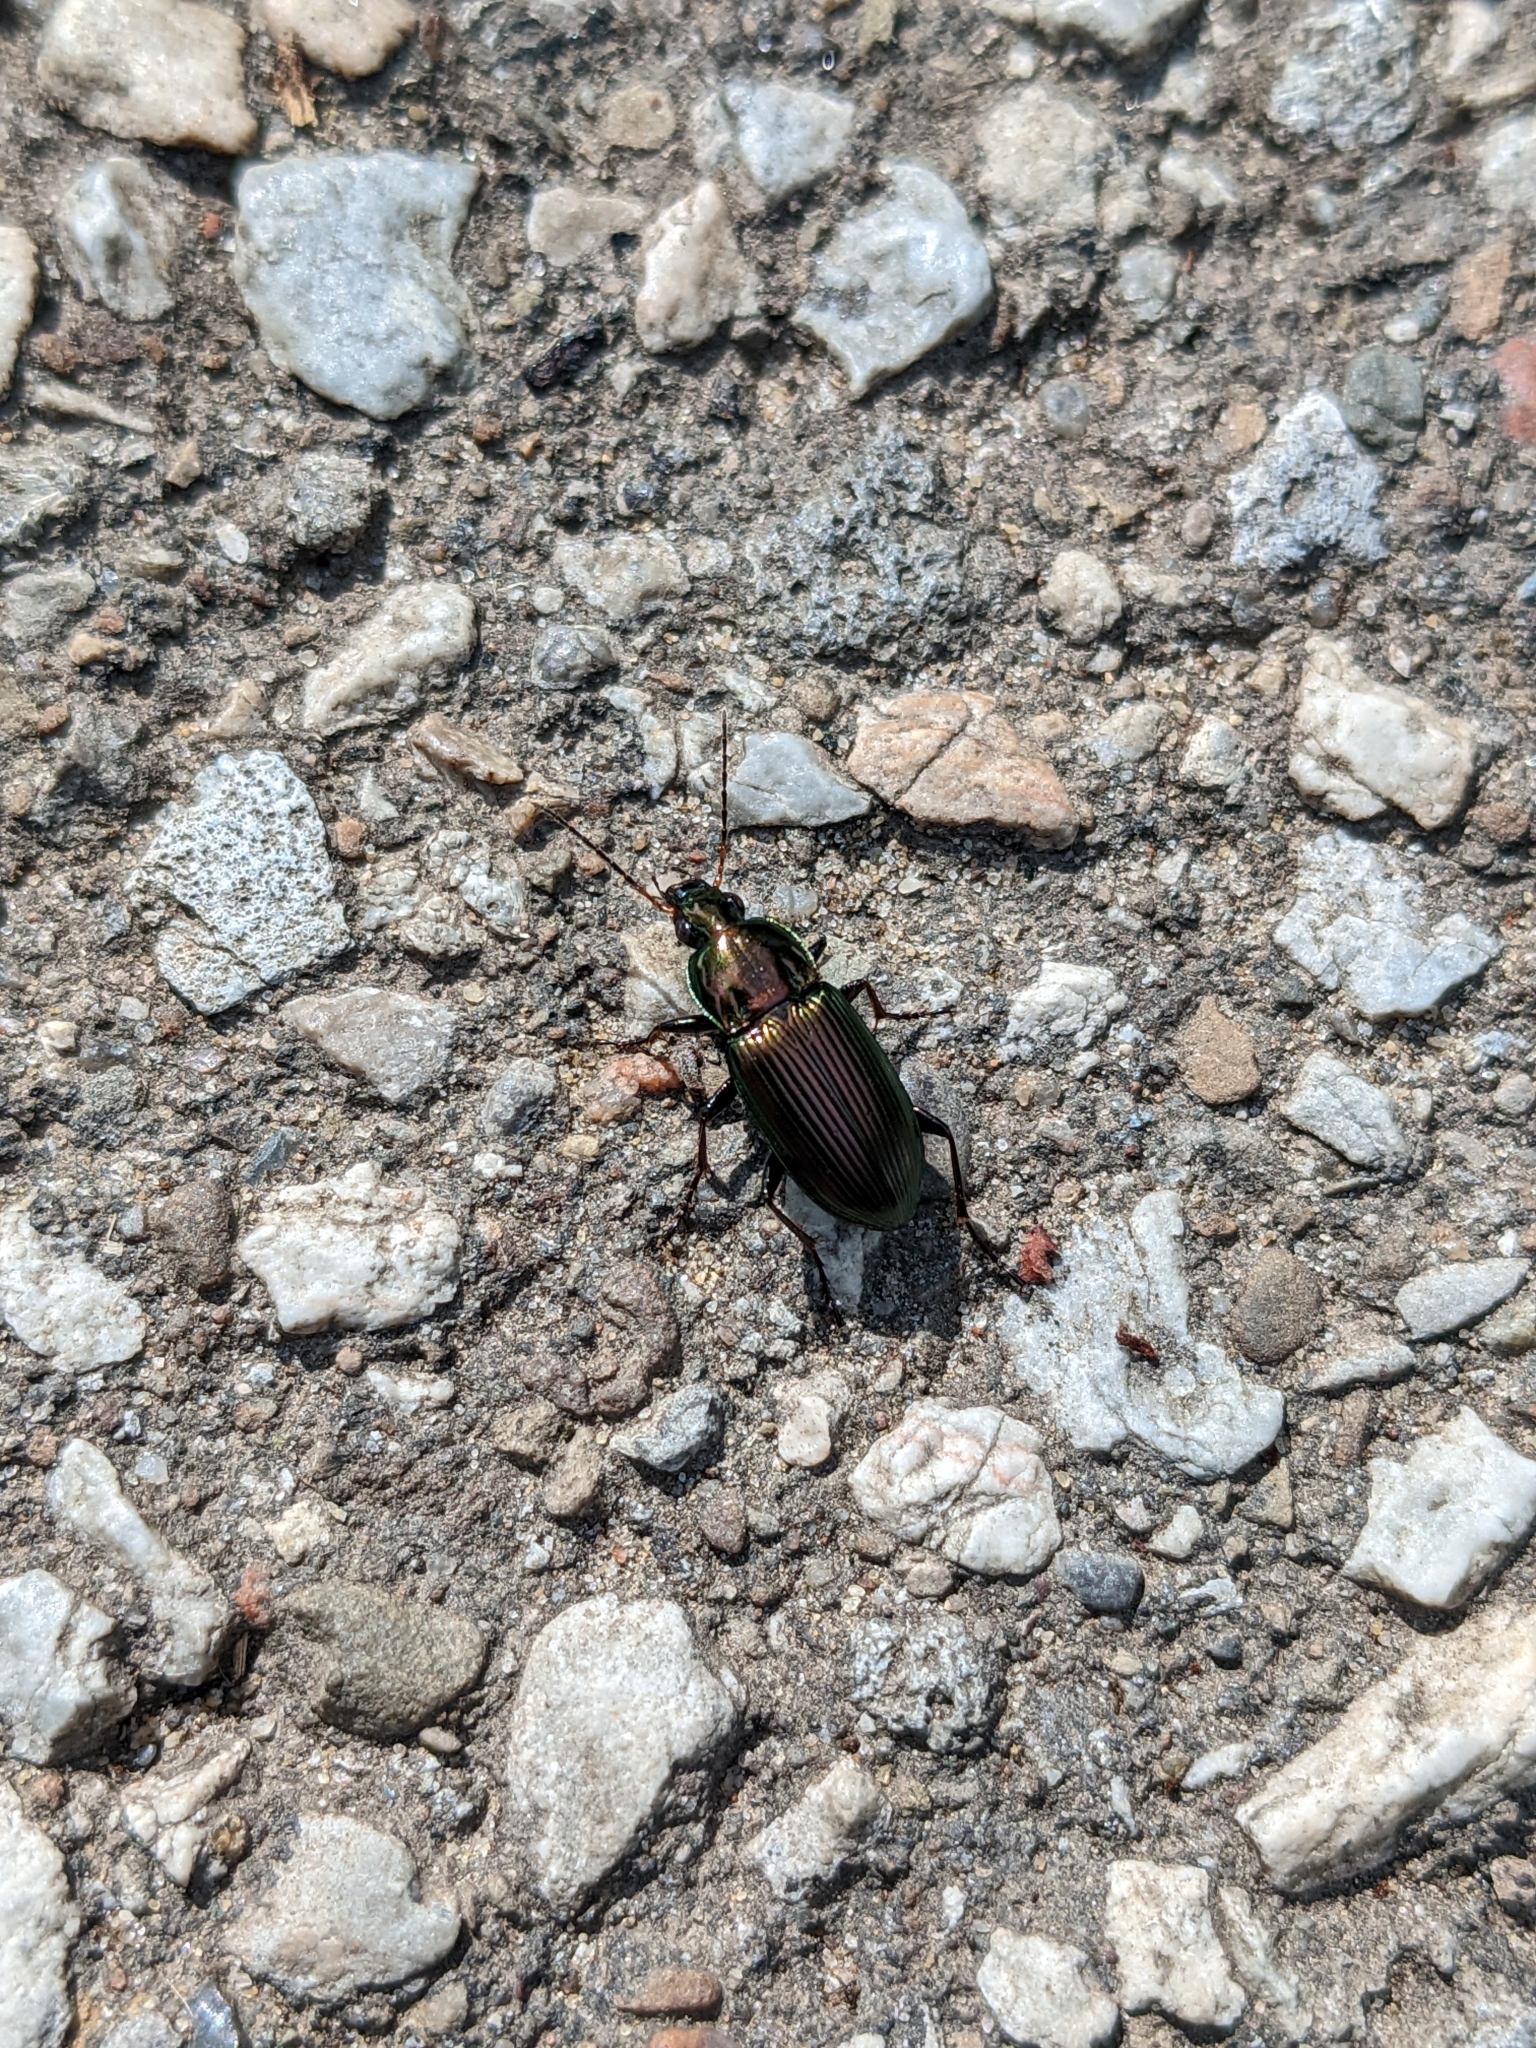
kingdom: Animalia
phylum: Arthropoda
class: Insecta
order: Coleoptera
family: Carabidae
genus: Poecilus
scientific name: Poecilus chalcites
